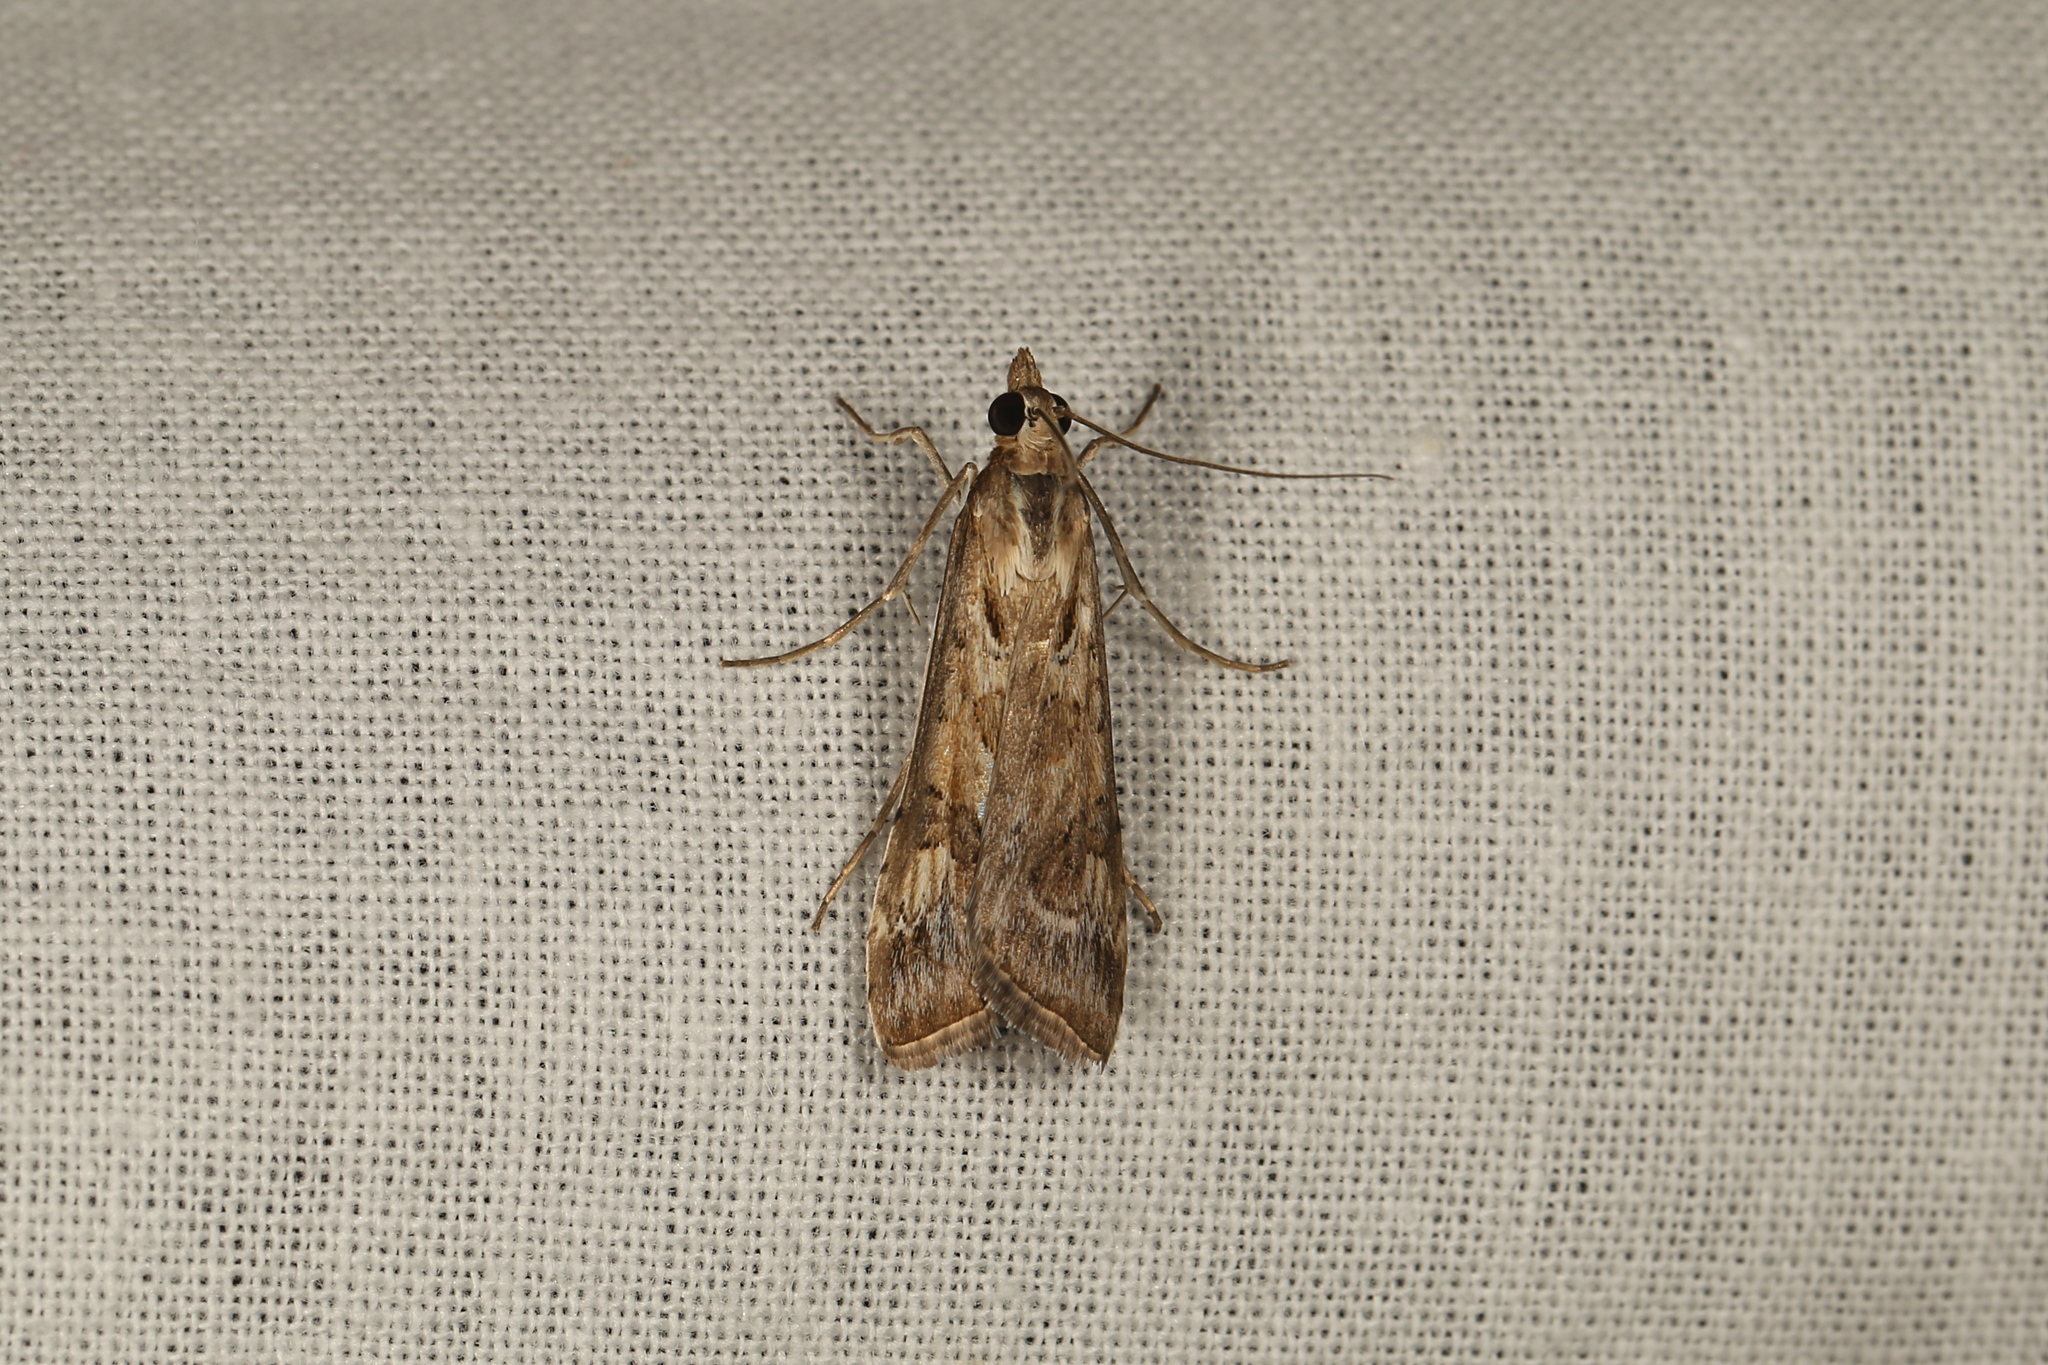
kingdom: Animalia
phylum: Arthropoda
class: Insecta
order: Lepidoptera
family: Crambidae
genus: Nomophila
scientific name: Nomophila corticalis
